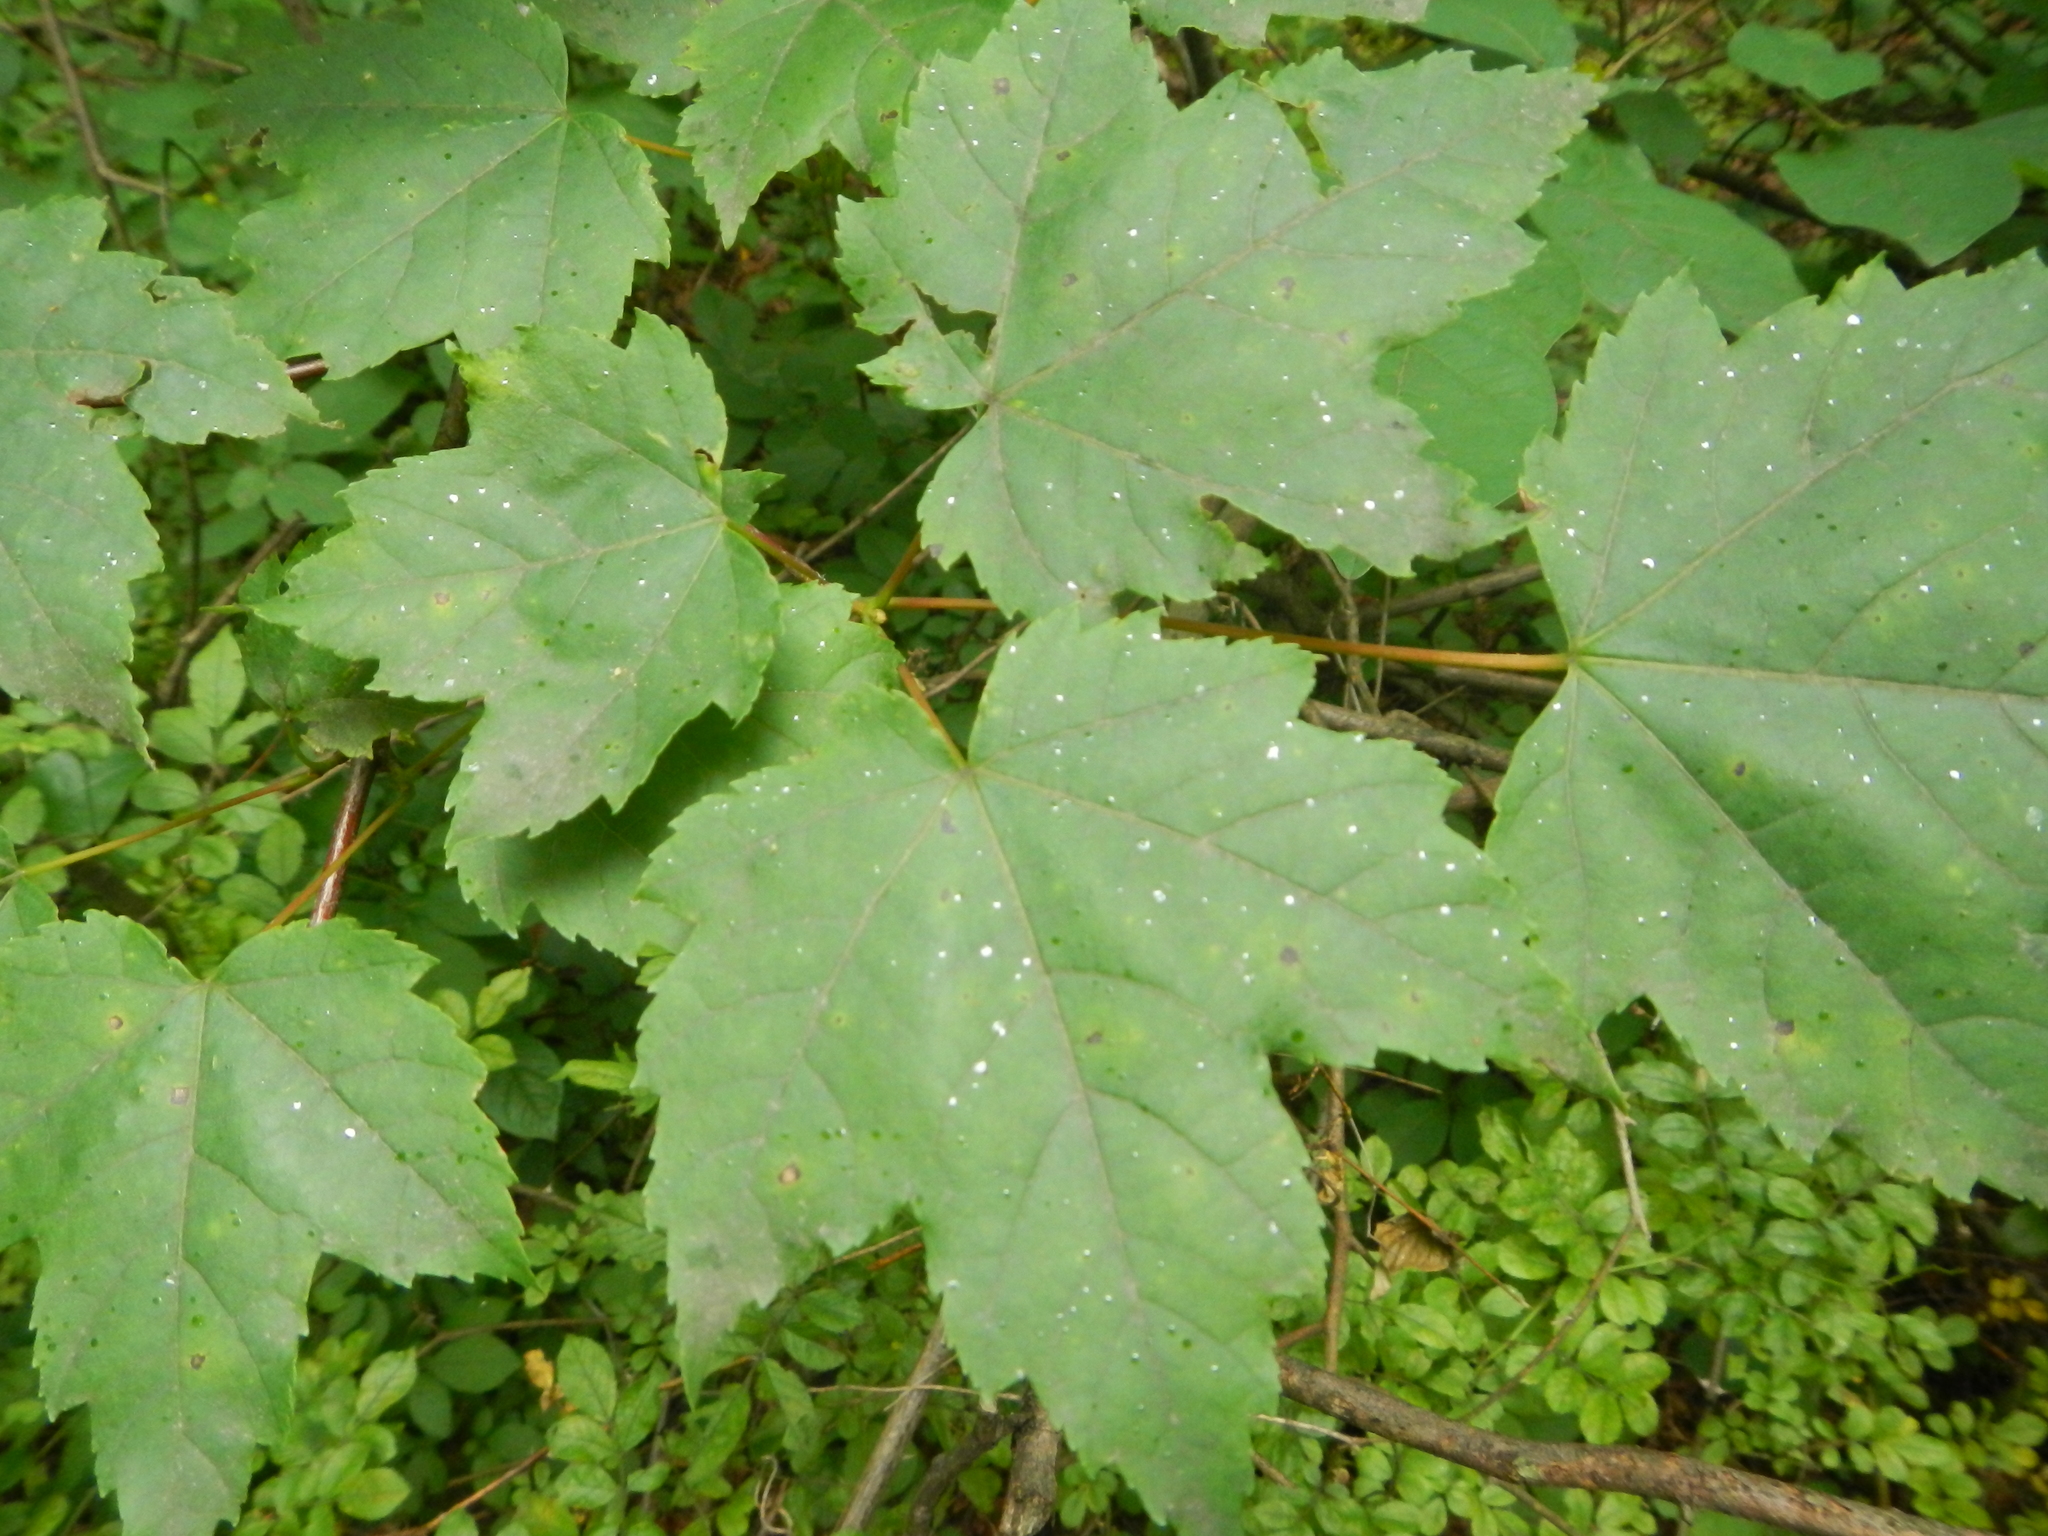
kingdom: Plantae
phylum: Tracheophyta
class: Magnoliopsida
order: Sapindales
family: Sapindaceae
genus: Acer
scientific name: Acer rubrum
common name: Red maple
